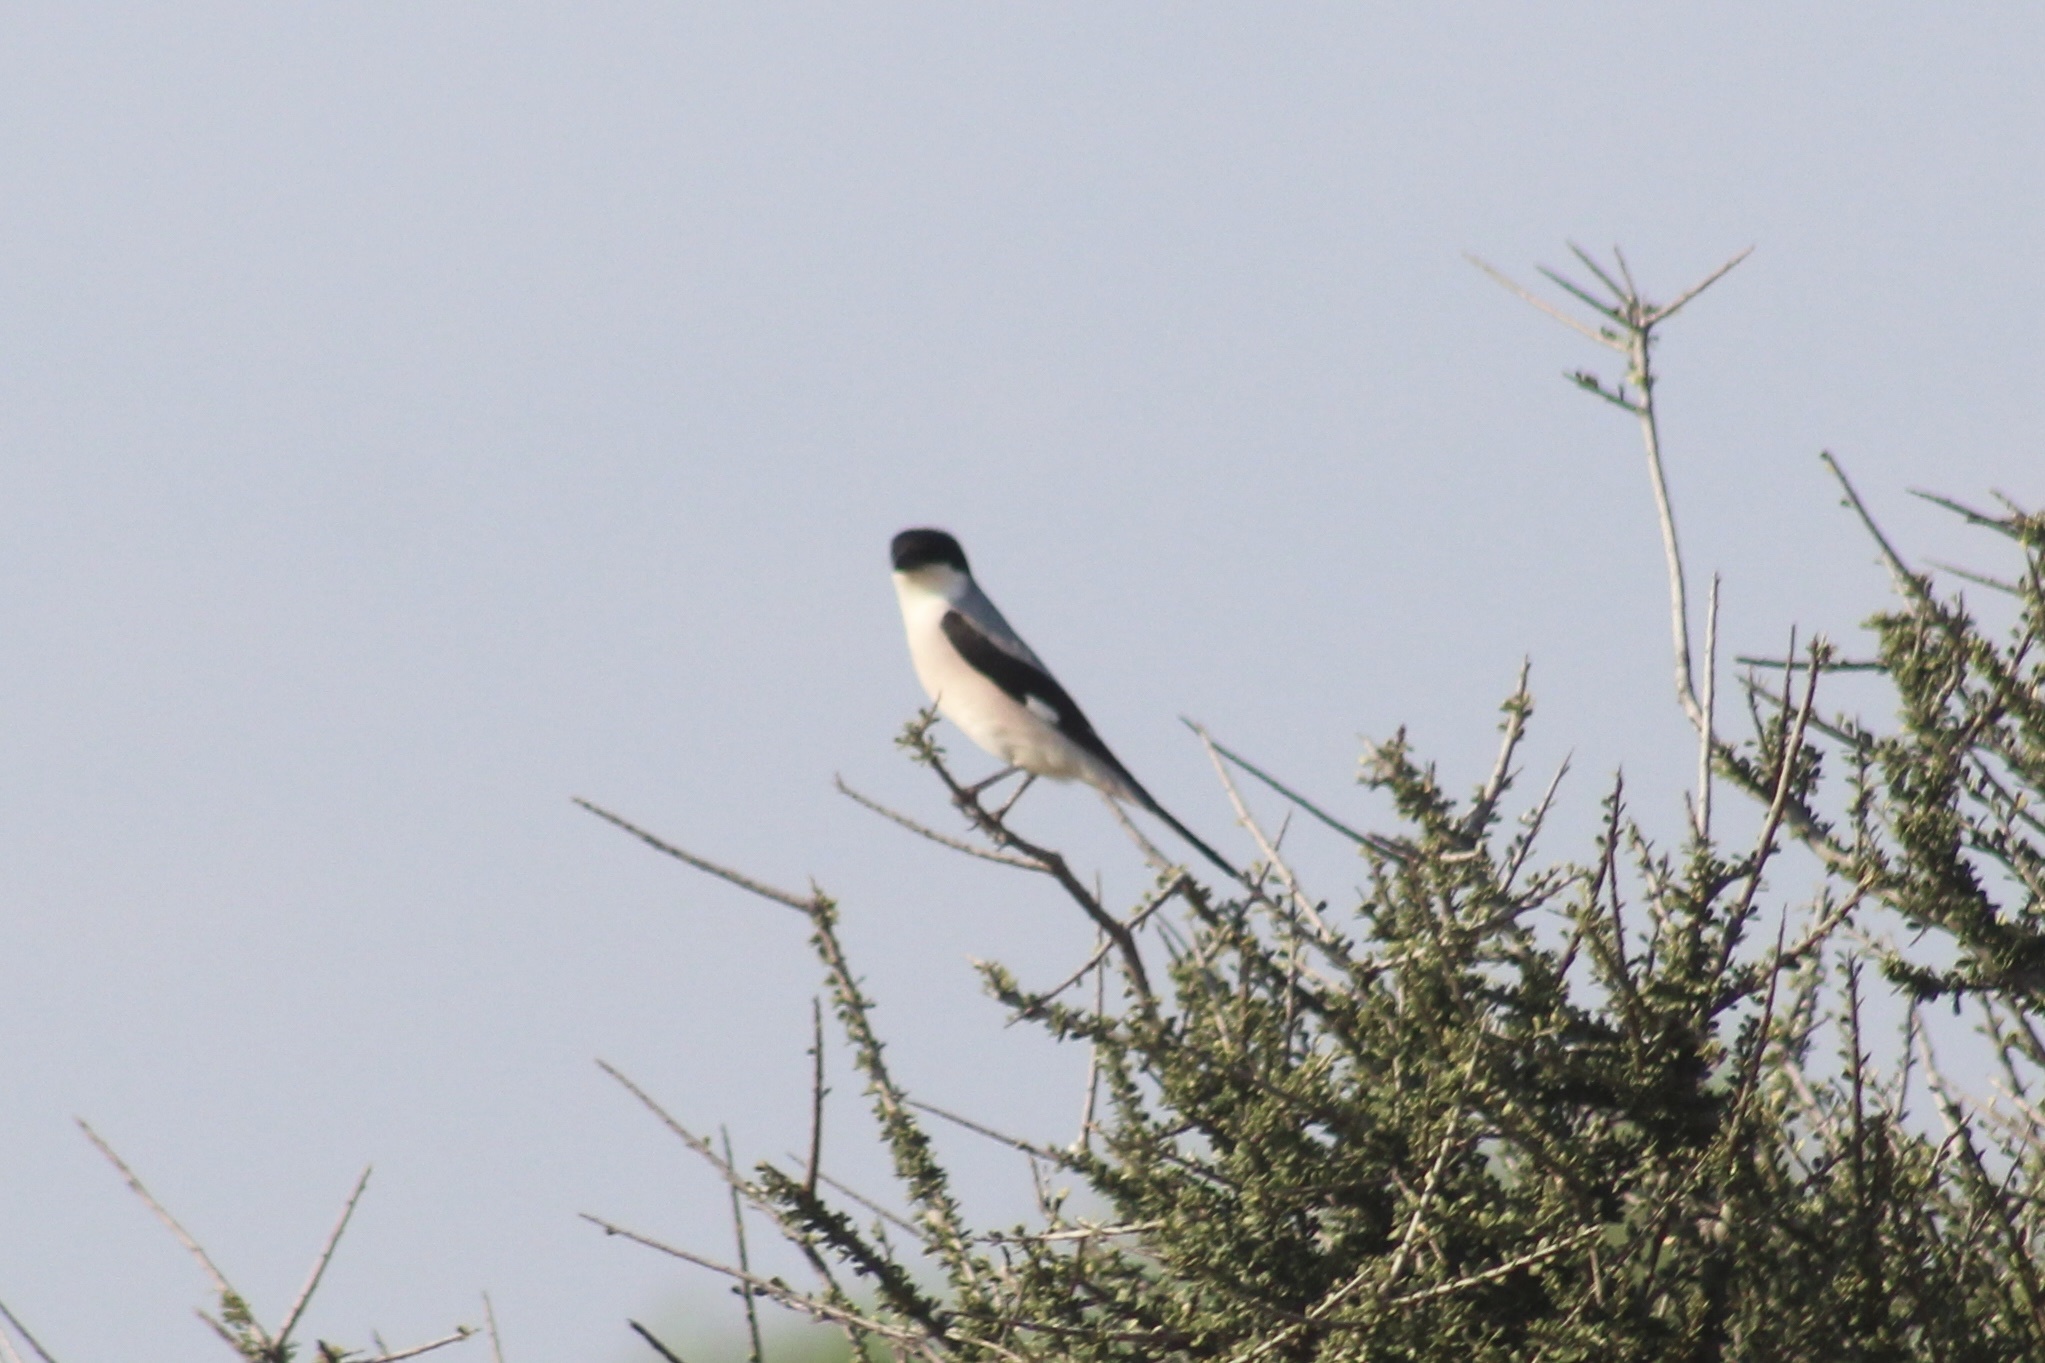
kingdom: Animalia
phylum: Chordata
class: Aves
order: Passeriformes
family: Laniidae
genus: Lanius
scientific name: Lanius minor
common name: Lesser grey shrike
